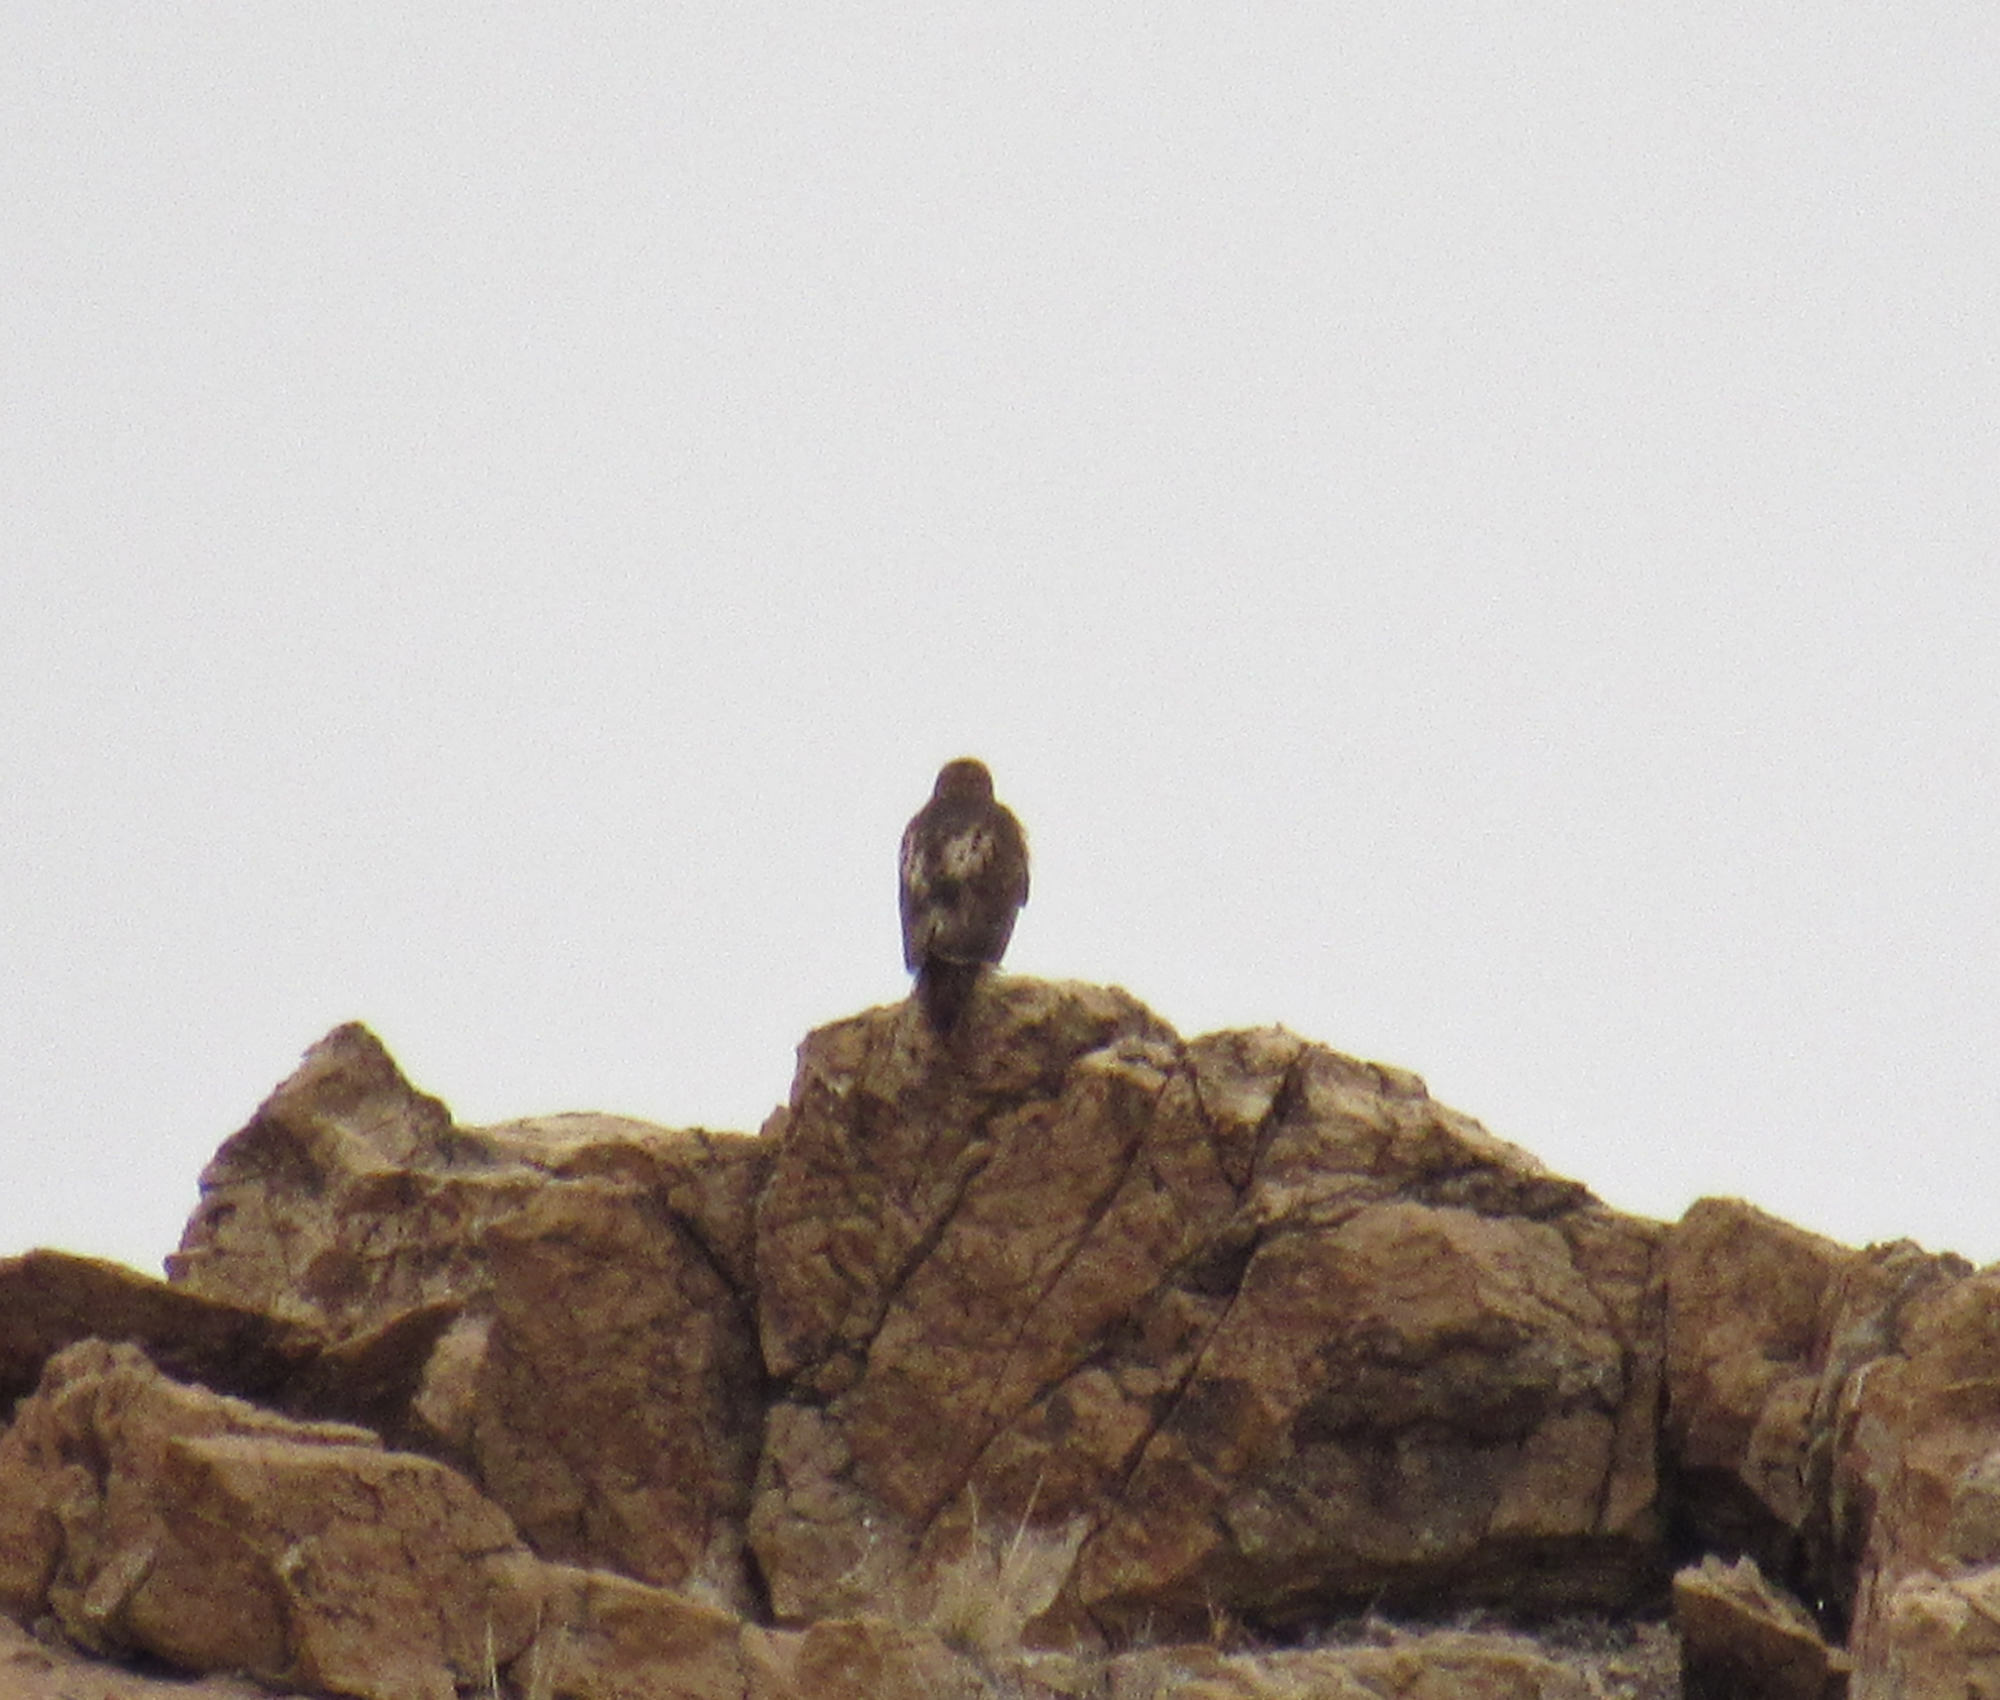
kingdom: Animalia
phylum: Chordata
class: Aves
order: Accipitriformes
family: Accipitridae
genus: Buteo
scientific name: Buteo jamaicensis
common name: Red-tailed hawk
